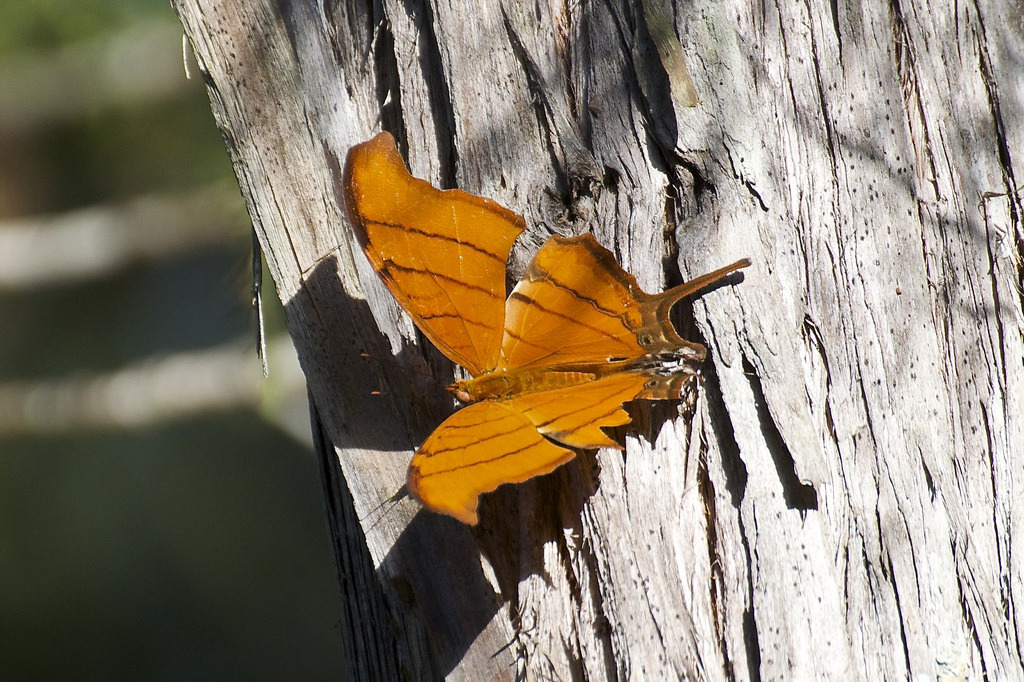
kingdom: Animalia
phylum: Arthropoda
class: Insecta
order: Lepidoptera
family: Nymphalidae
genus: Marpesia
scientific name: Marpesia petreus
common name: Red dagger wing
